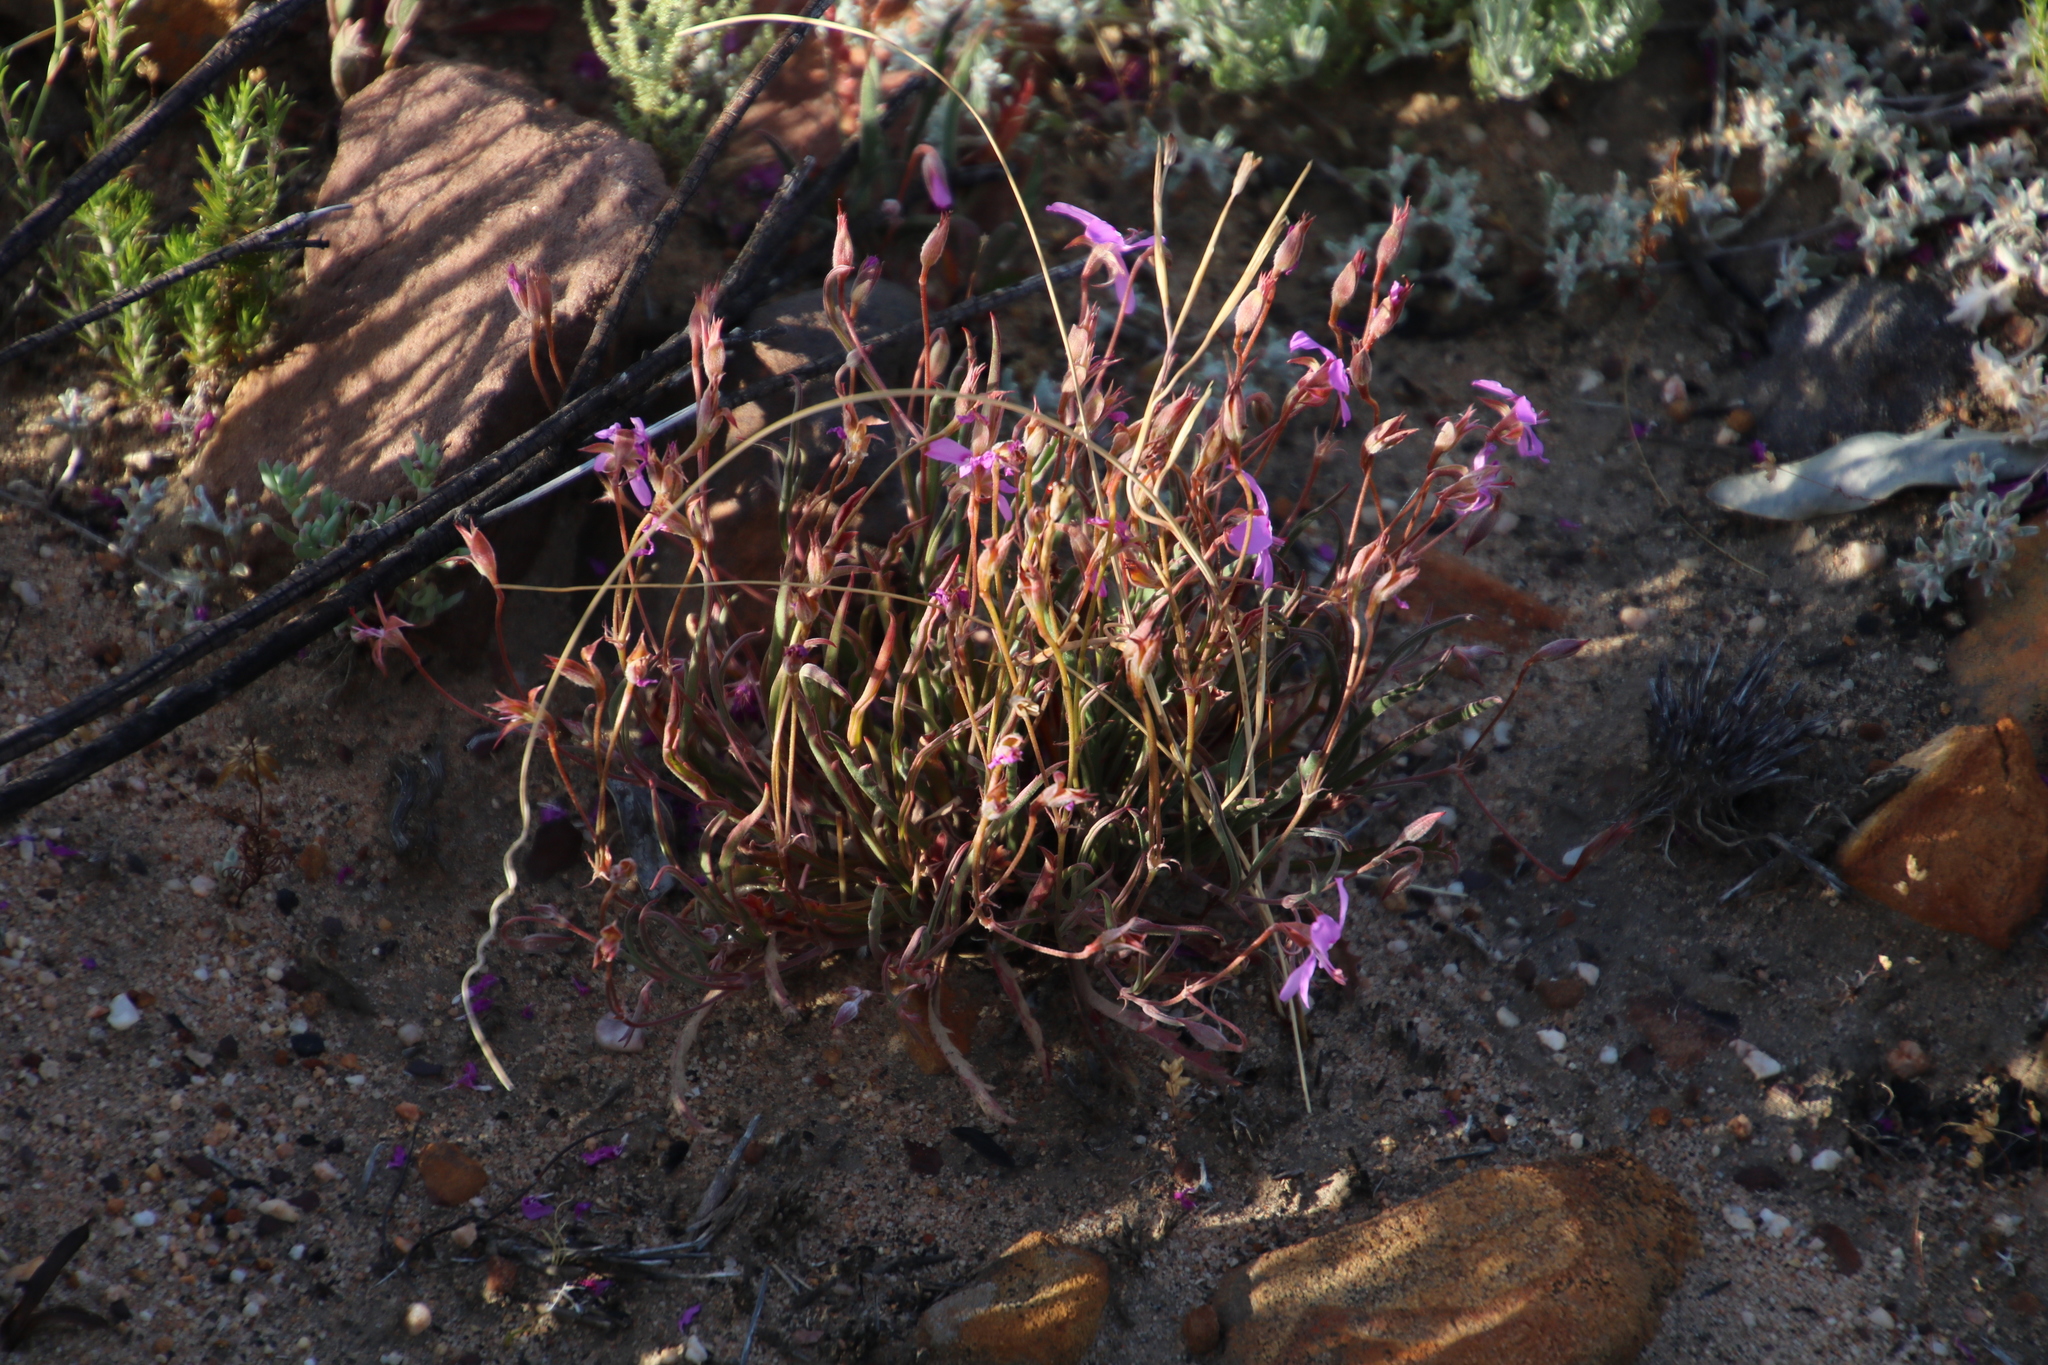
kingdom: Plantae
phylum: Tracheophyta
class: Magnoliopsida
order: Geraniales
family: Geraniaceae
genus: Pelargonium
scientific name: Pelargonium coronopifolium
